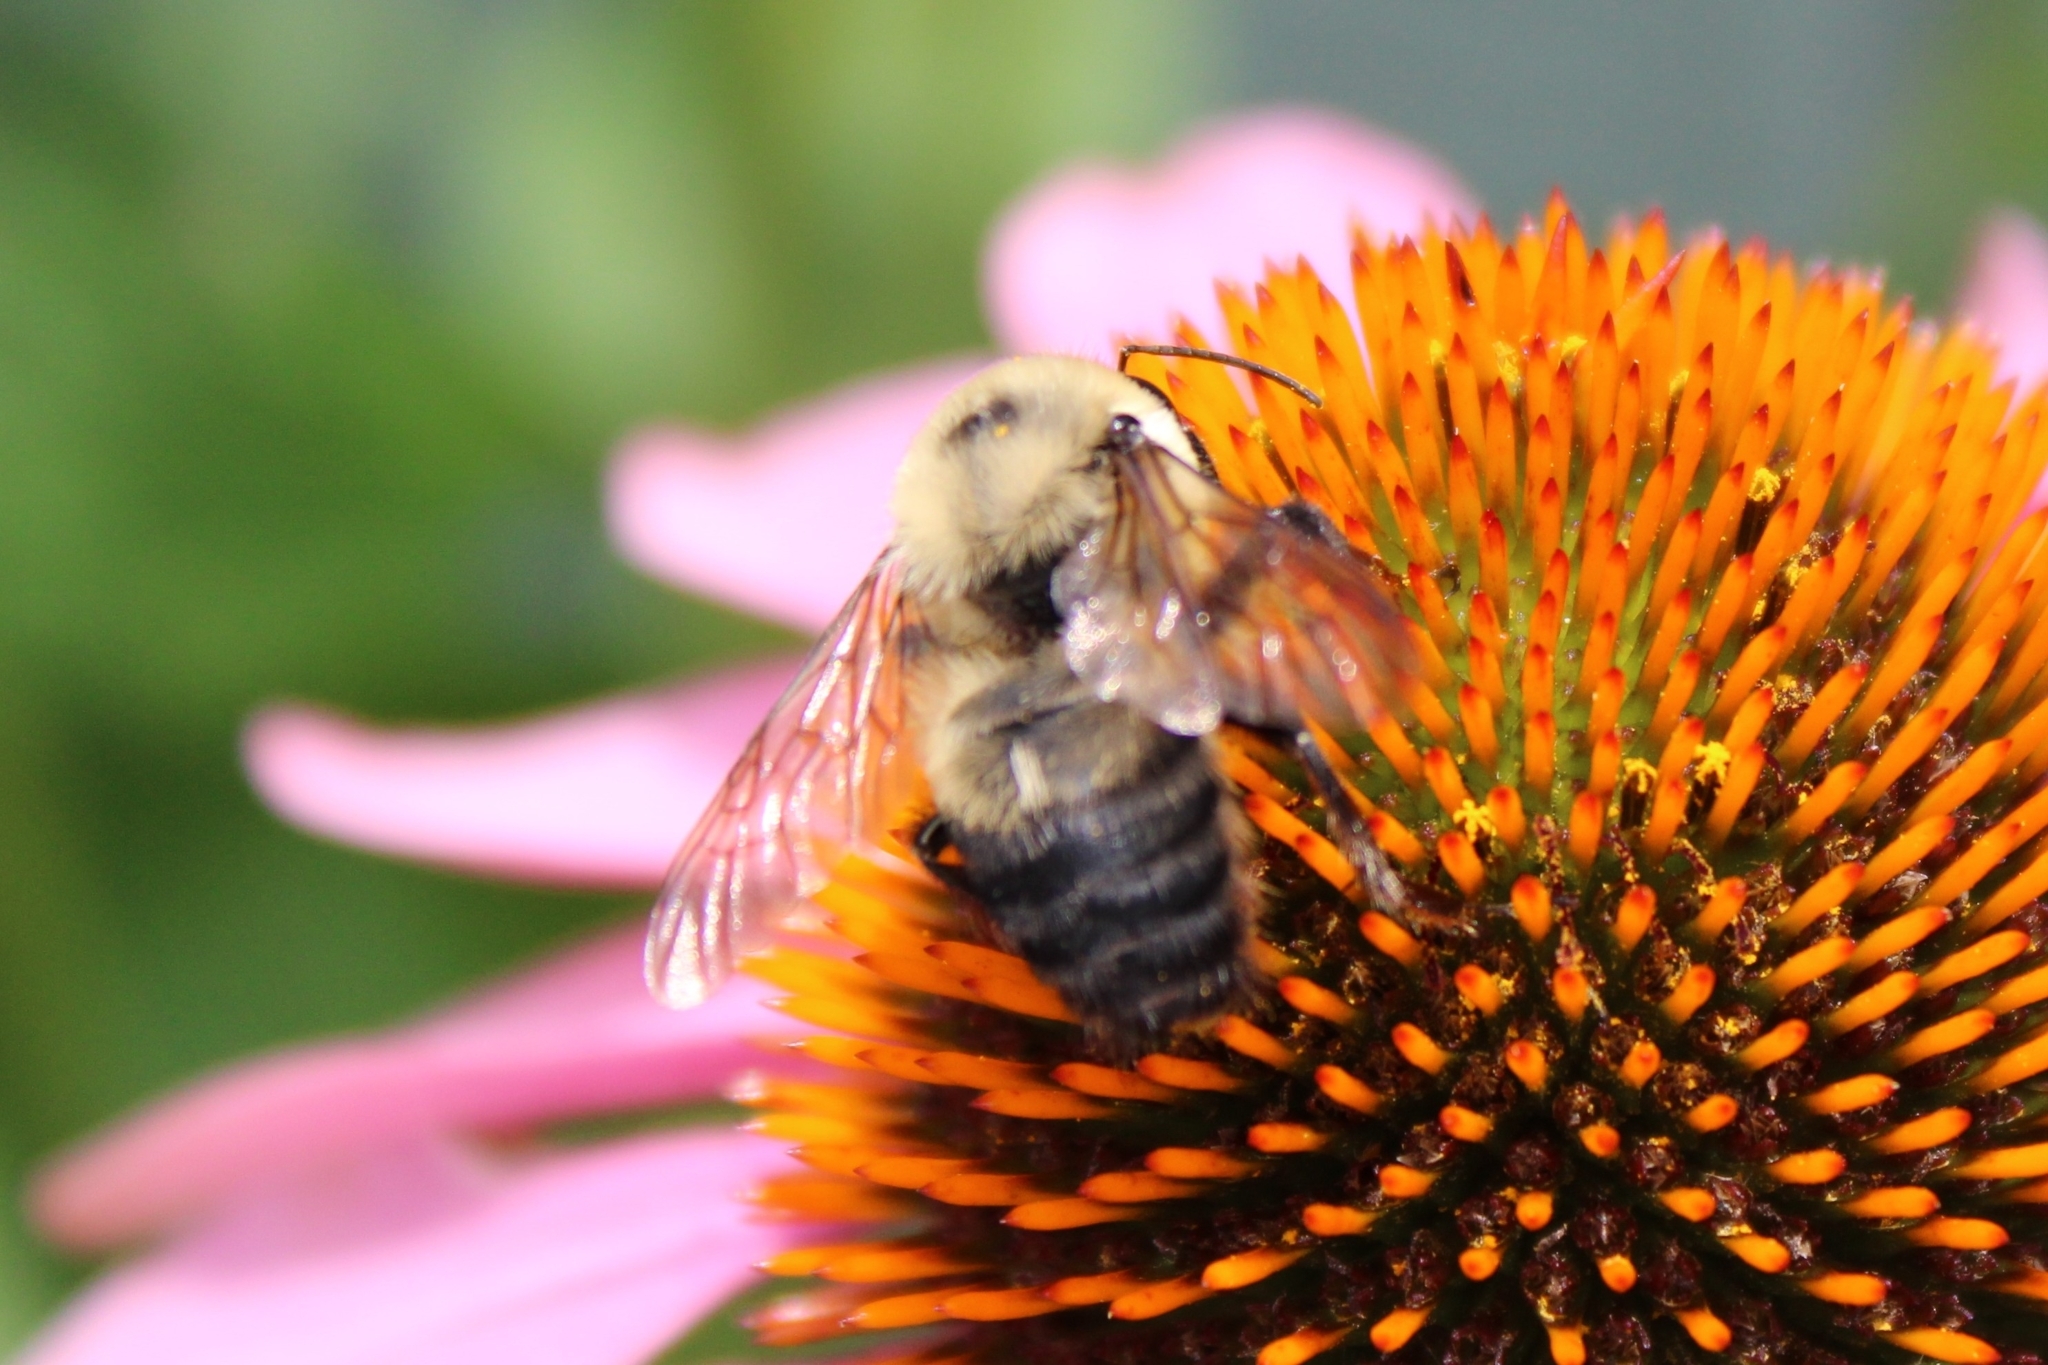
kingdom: Animalia
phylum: Arthropoda
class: Insecta
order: Hymenoptera
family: Apidae
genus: Bombus
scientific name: Bombus griseocollis
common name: Brown-belted bumble bee
